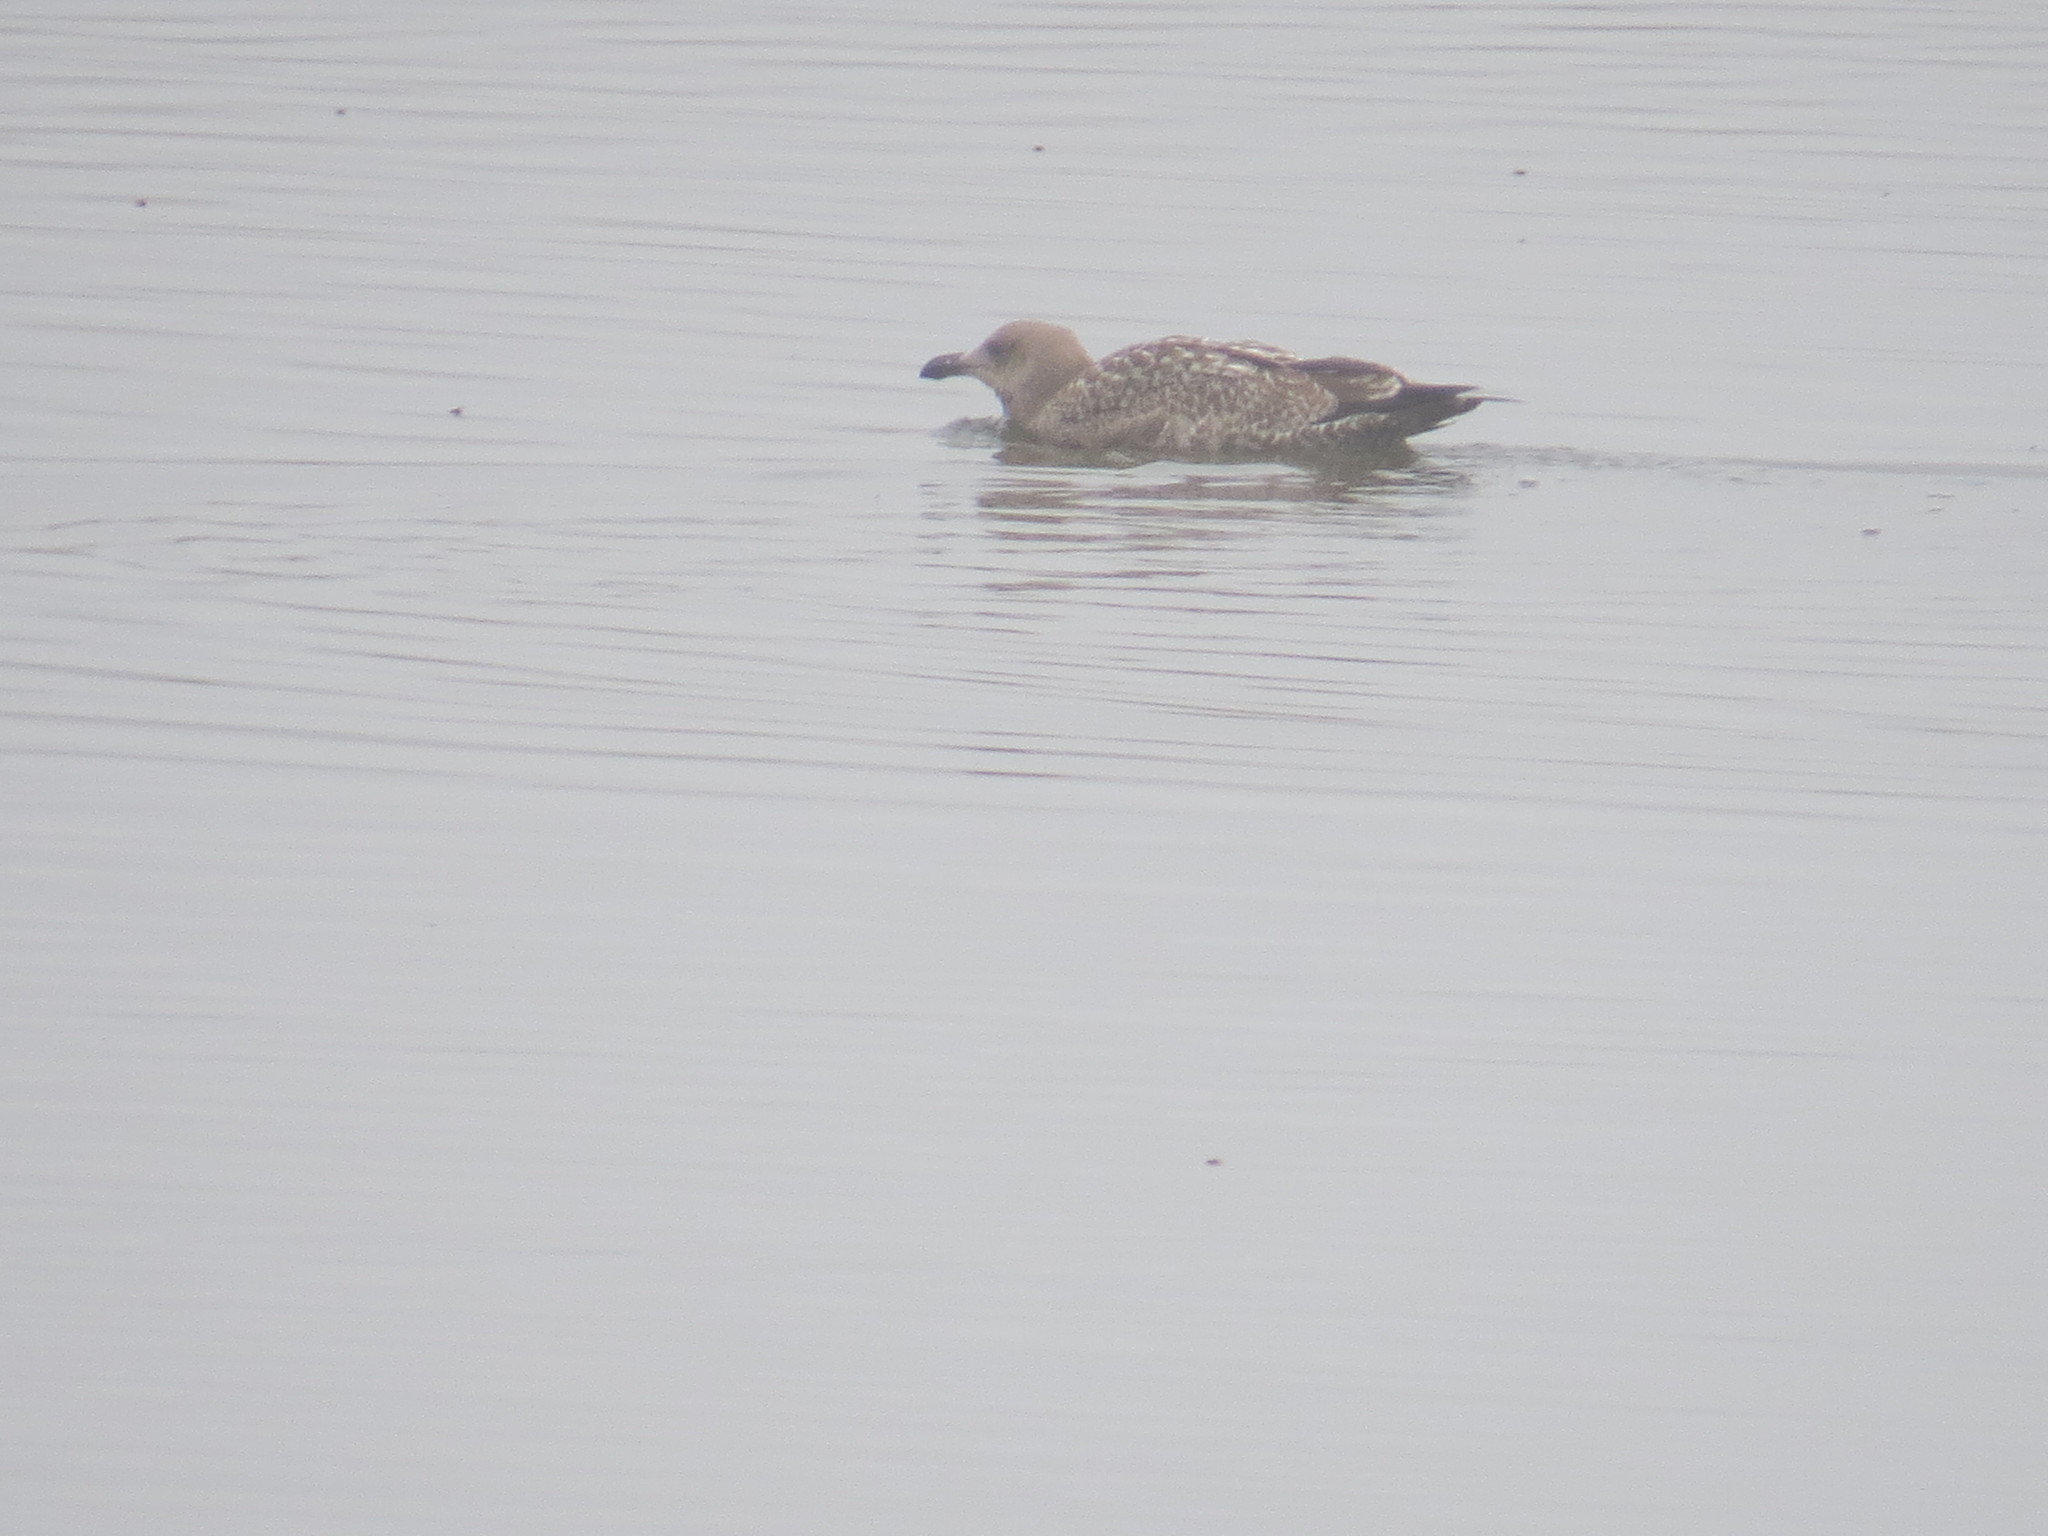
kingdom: Animalia
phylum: Chordata
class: Aves
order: Charadriiformes
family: Laridae
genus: Larus
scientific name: Larus marinus
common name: Great black-backed gull
